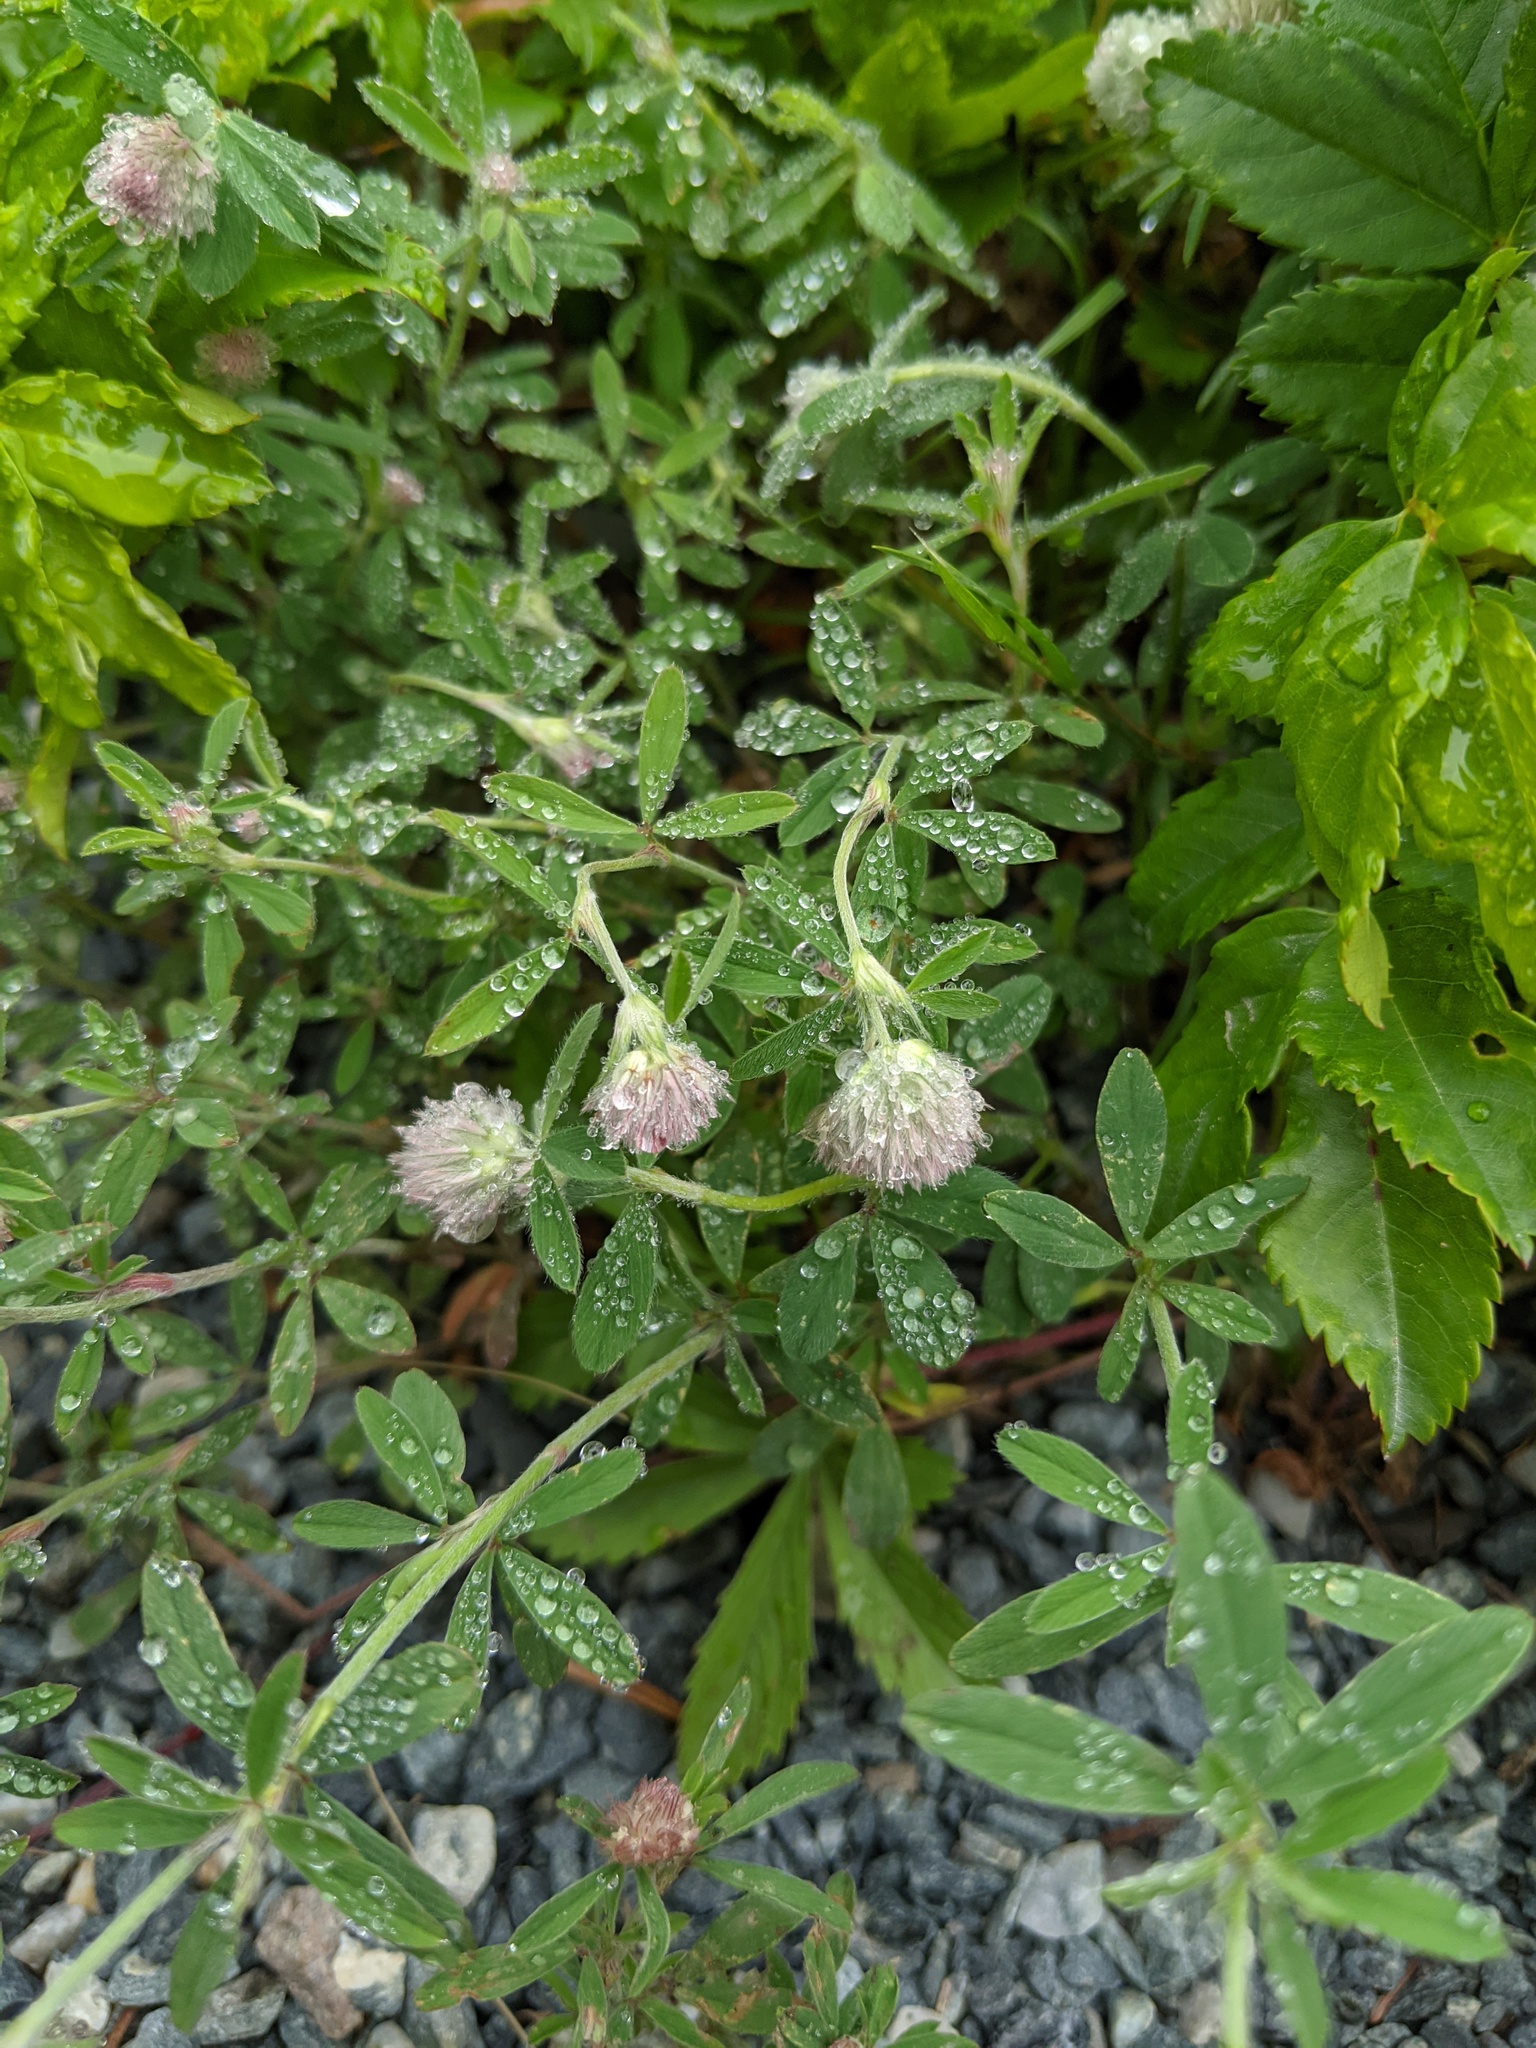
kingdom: Plantae
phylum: Tracheophyta
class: Magnoliopsida
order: Fabales
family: Fabaceae
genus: Trifolium
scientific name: Trifolium arvense
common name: Hare's-foot clover
